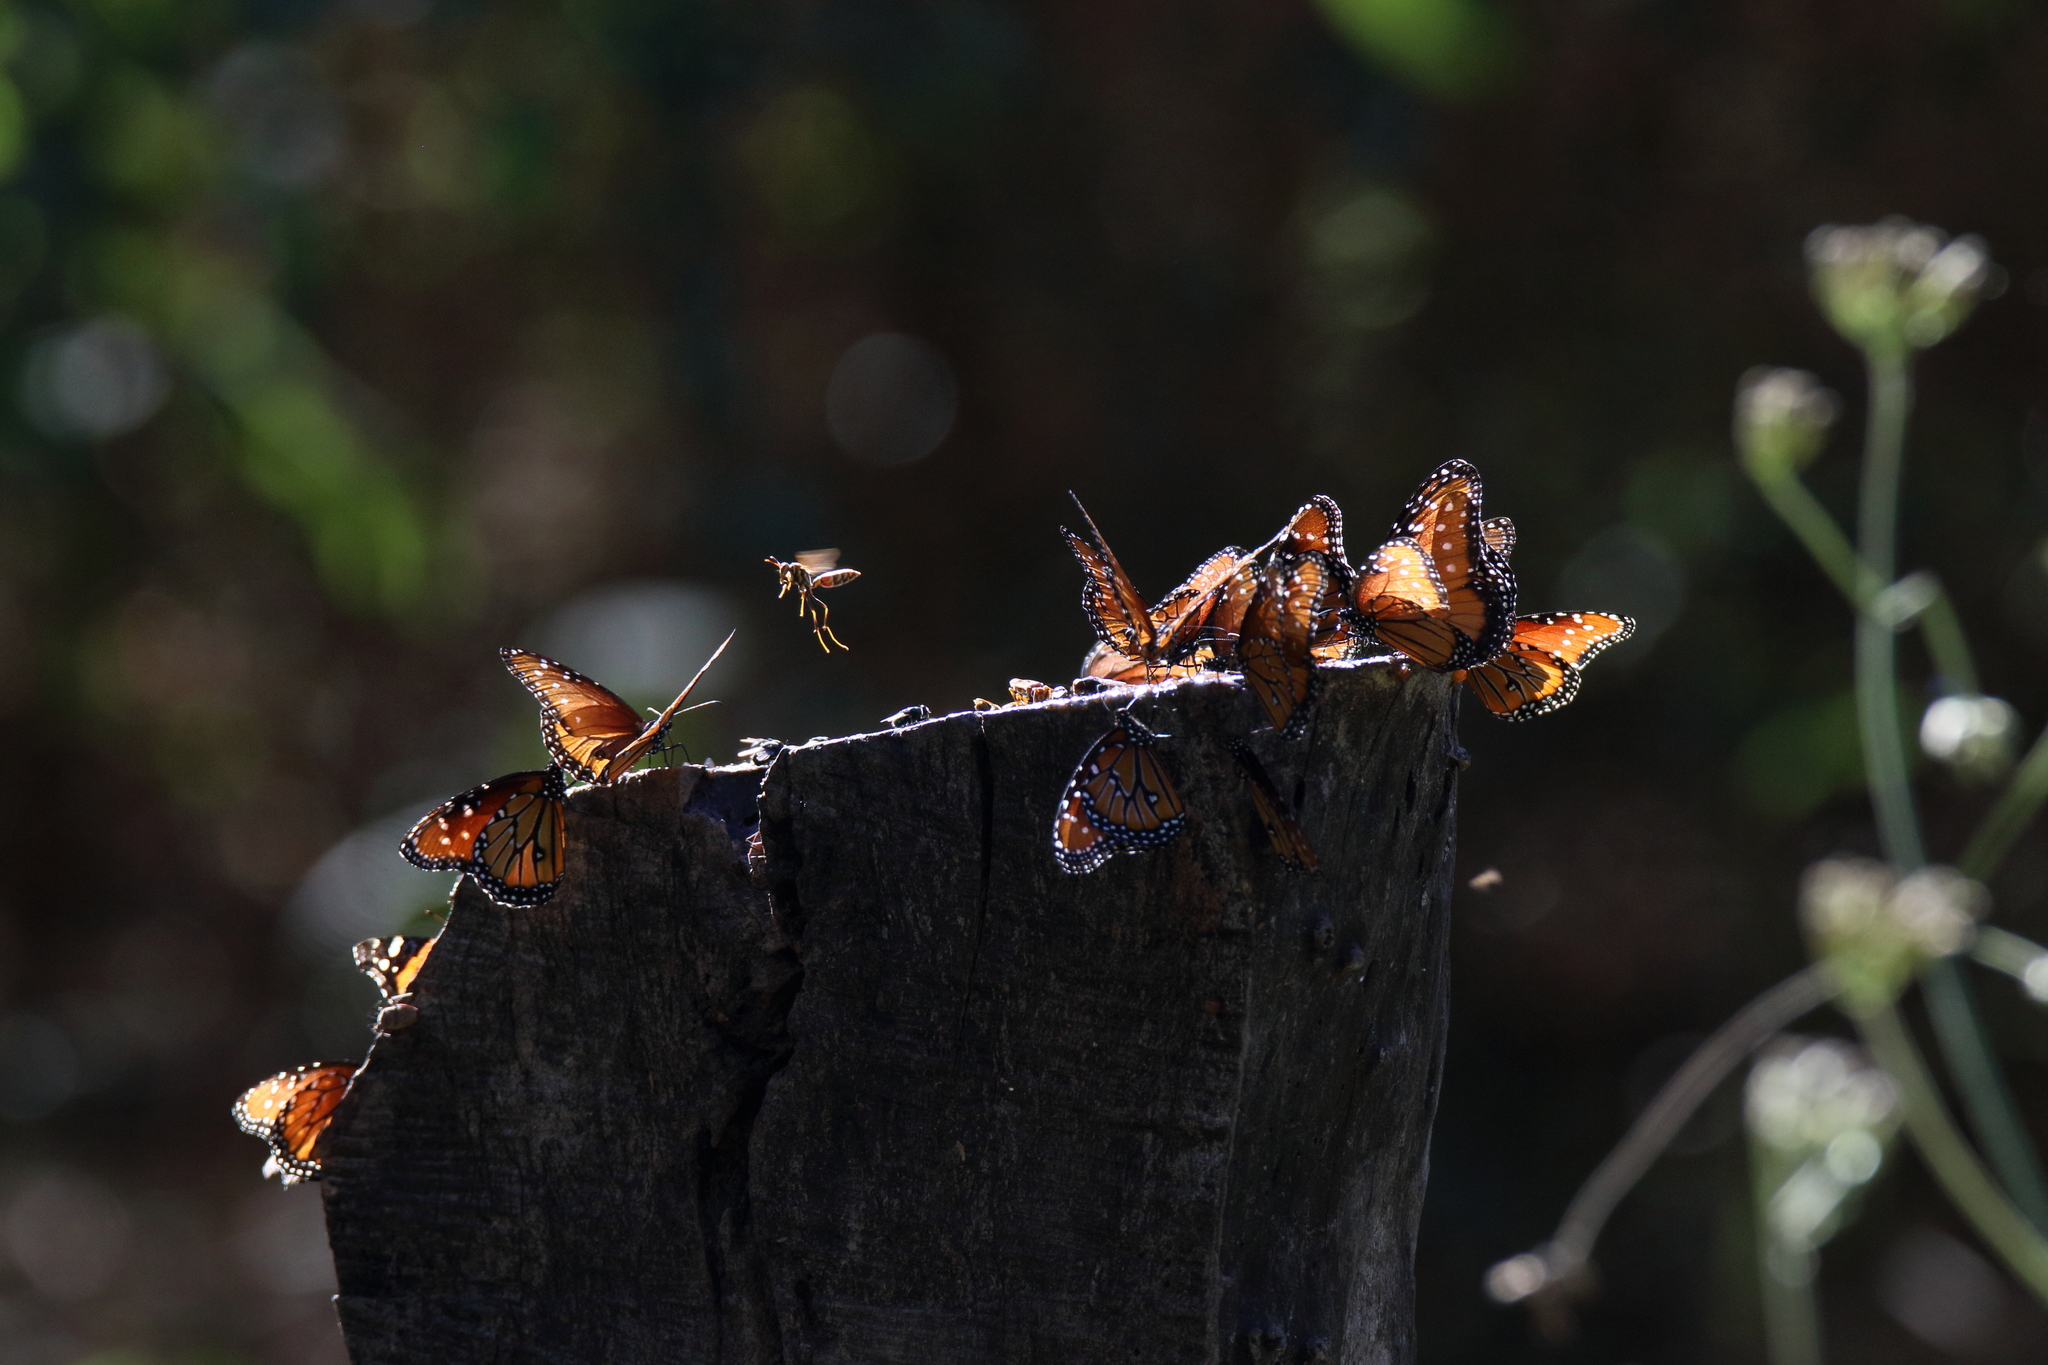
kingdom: Animalia
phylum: Arthropoda
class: Insecta
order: Lepidoptera
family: Nymphalidae
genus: Danaus
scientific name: Danaus gilippus
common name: Queen
